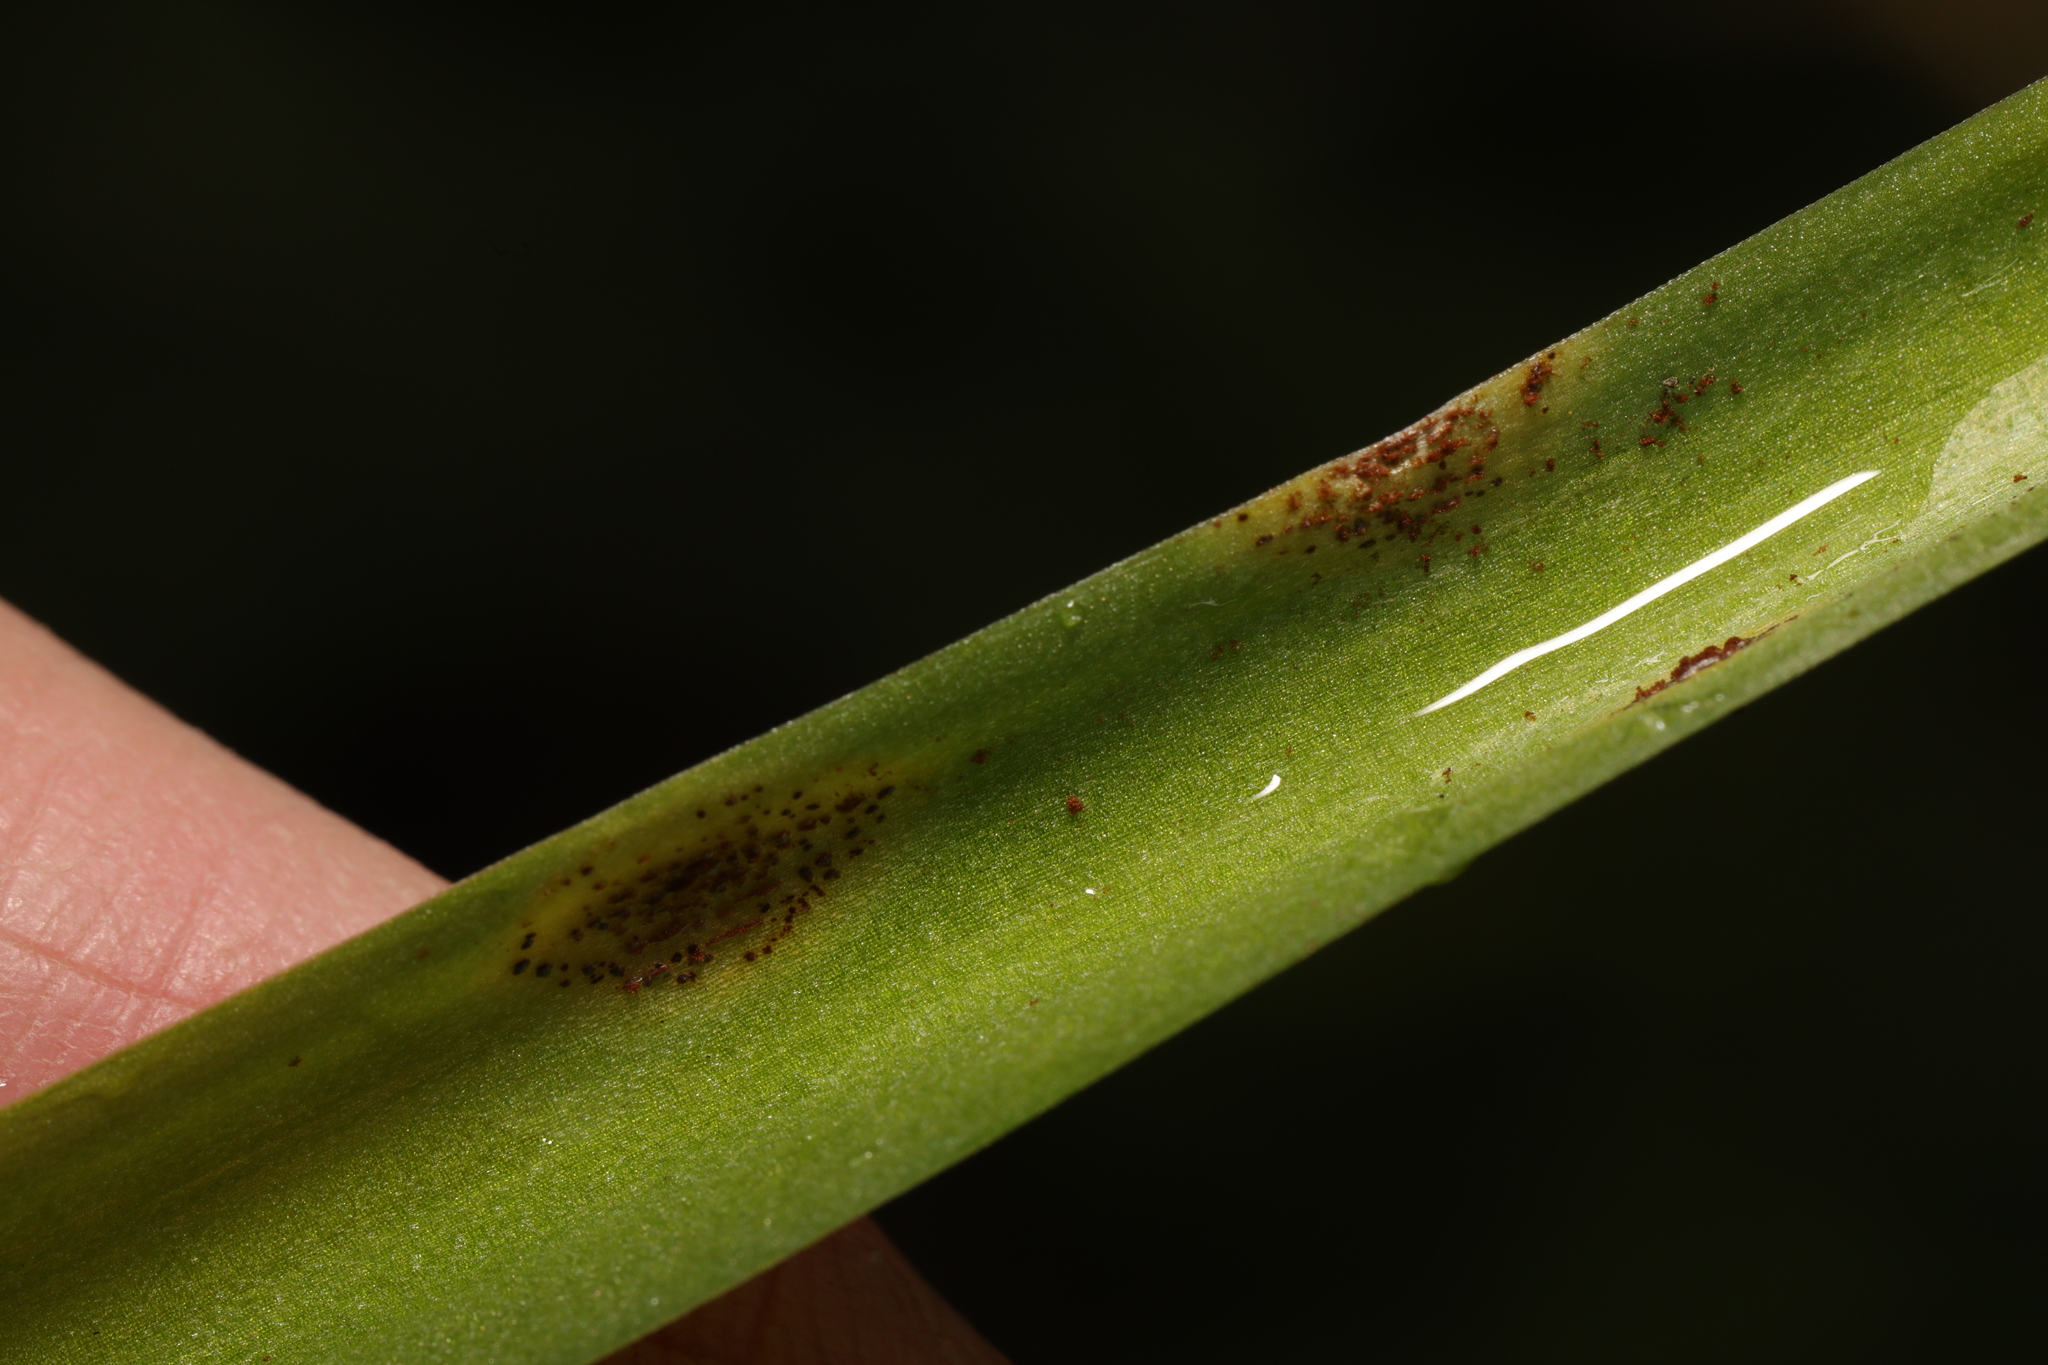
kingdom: Fungi
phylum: Basidiomycota
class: Pucciniomycetes
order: Pucciniales
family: Pucciniaceae
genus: Uromyces
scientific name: Uromyces hyacinthi
